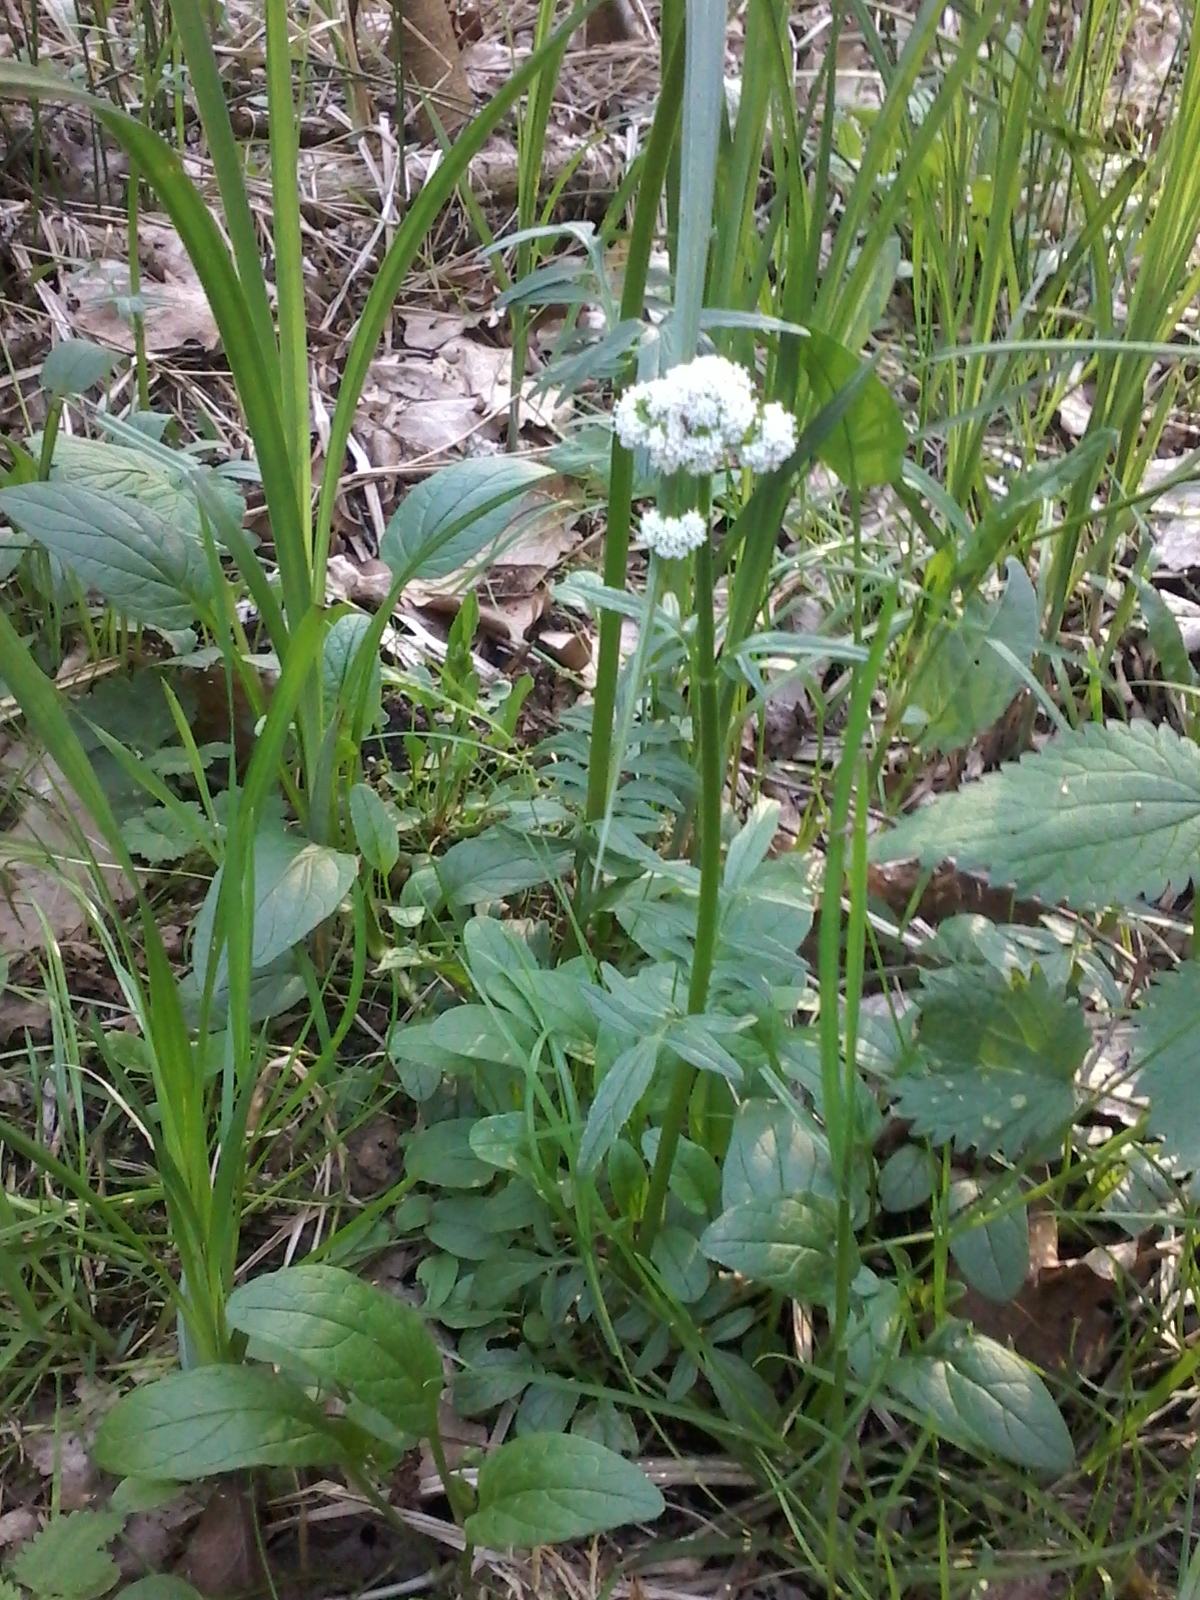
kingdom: Plantae
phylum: Tracheophyta
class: Magnoliopsida
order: Dipsacales
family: Caprifoliaceae
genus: Valeriana
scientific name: Valeriana dioica
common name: Marsh valerian
